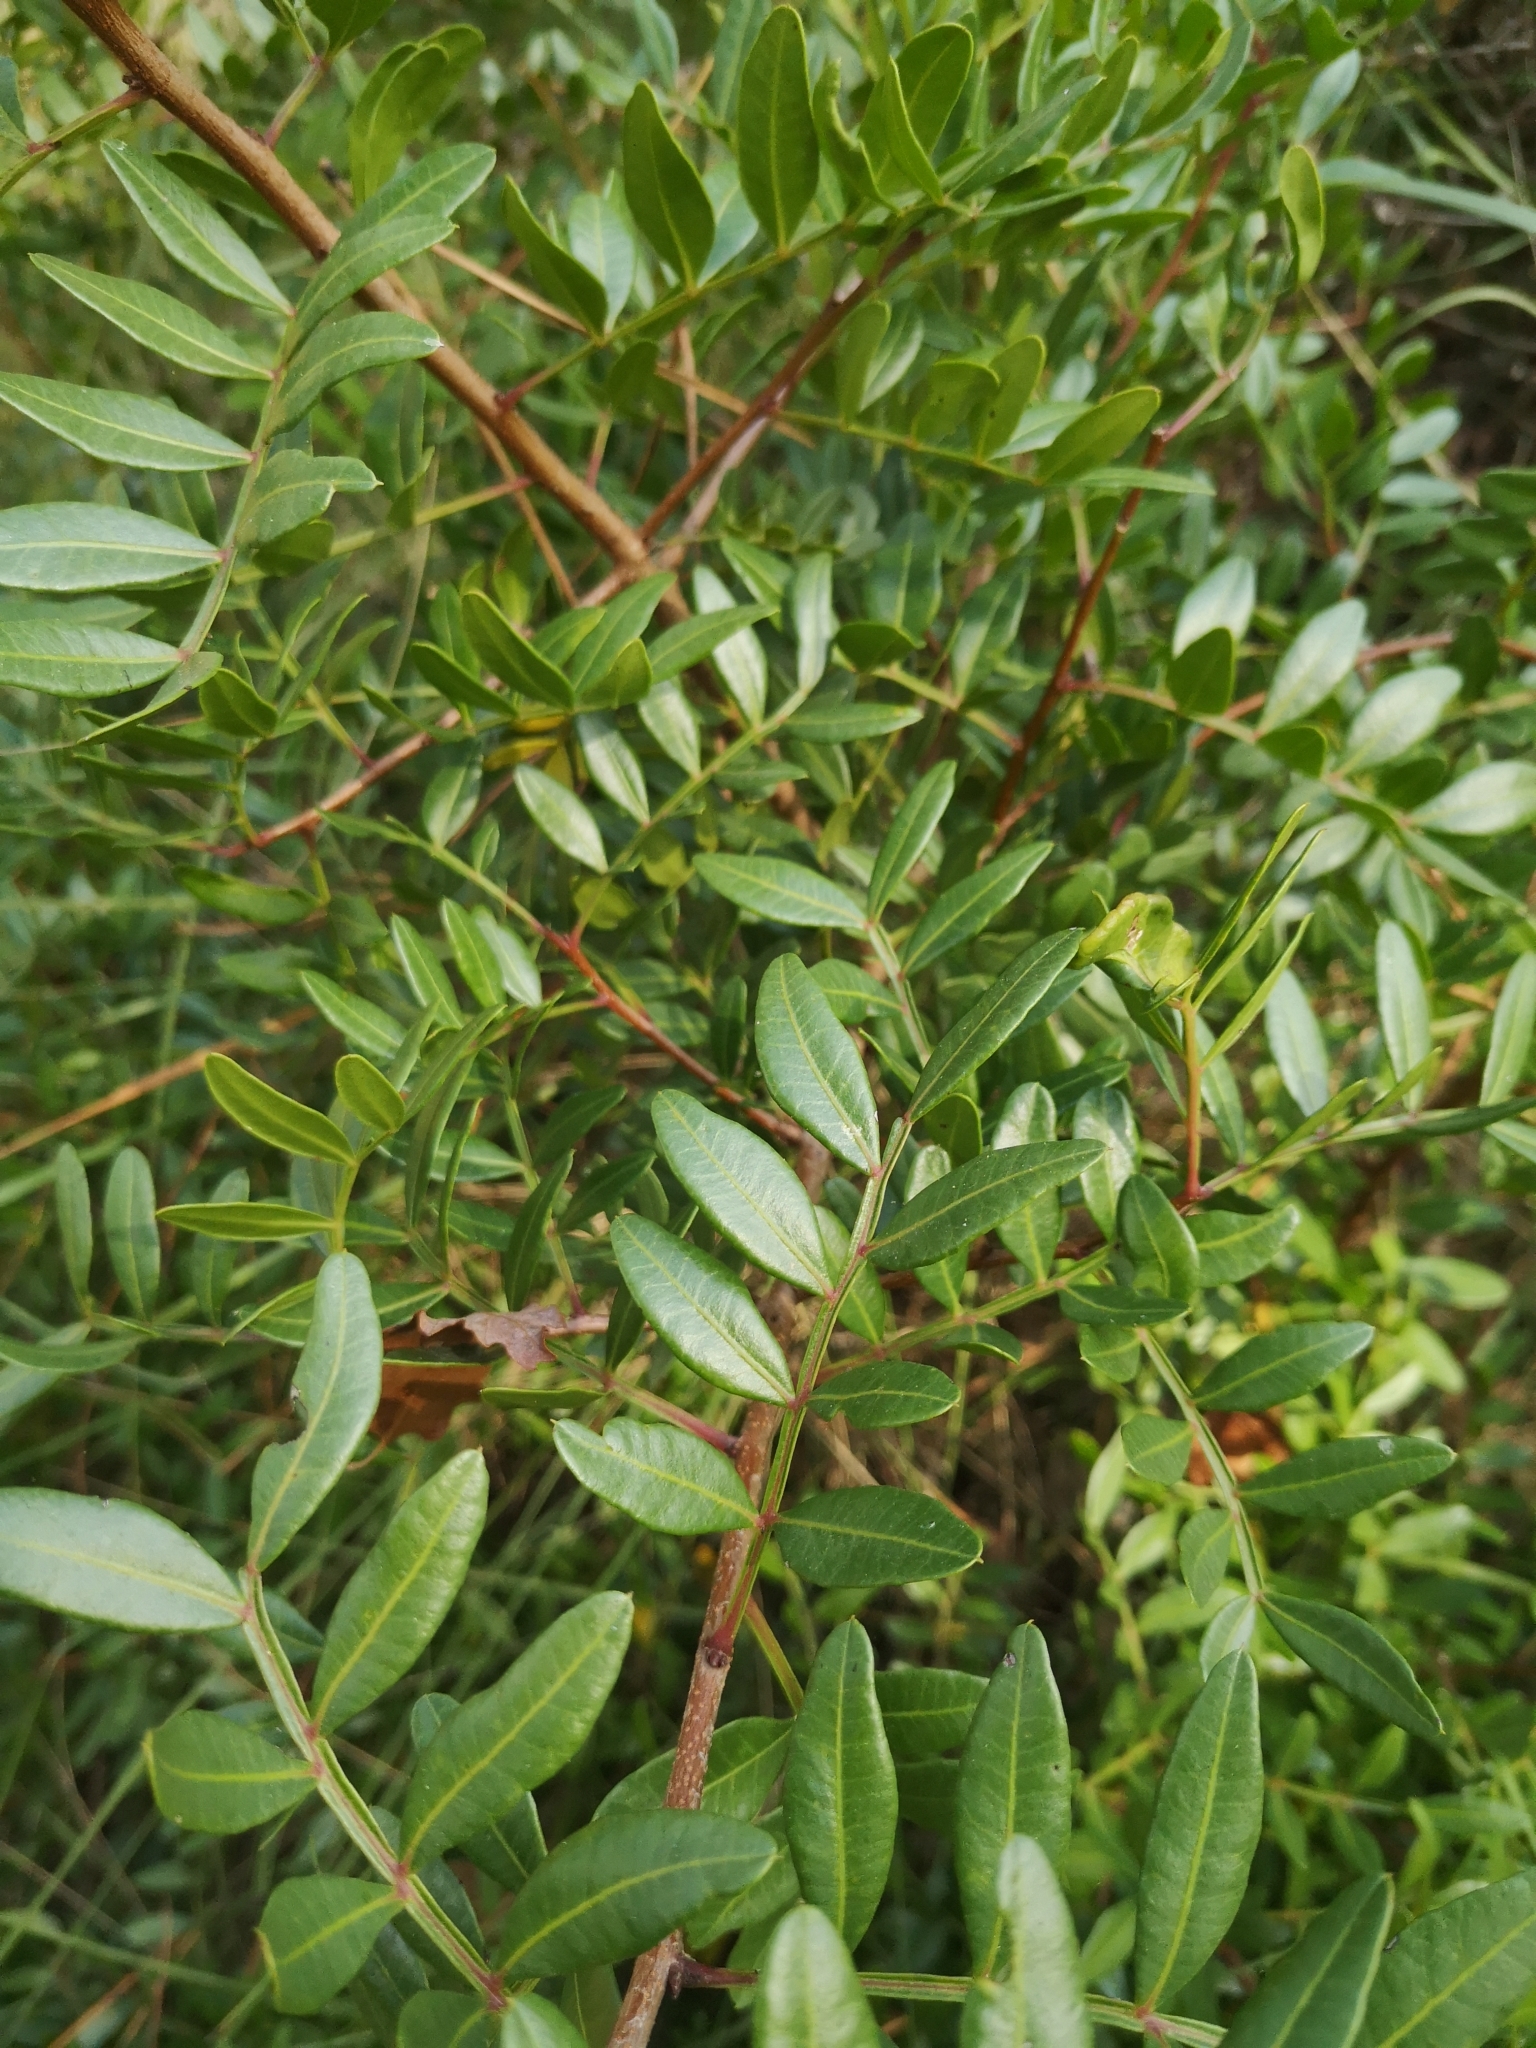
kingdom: Plantae
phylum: Tracheophyta
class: Magnoliopsida
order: Sapindales
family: Anacardiaceae
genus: Pistacia
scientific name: Pistacia lentiscus
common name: Lentisk
